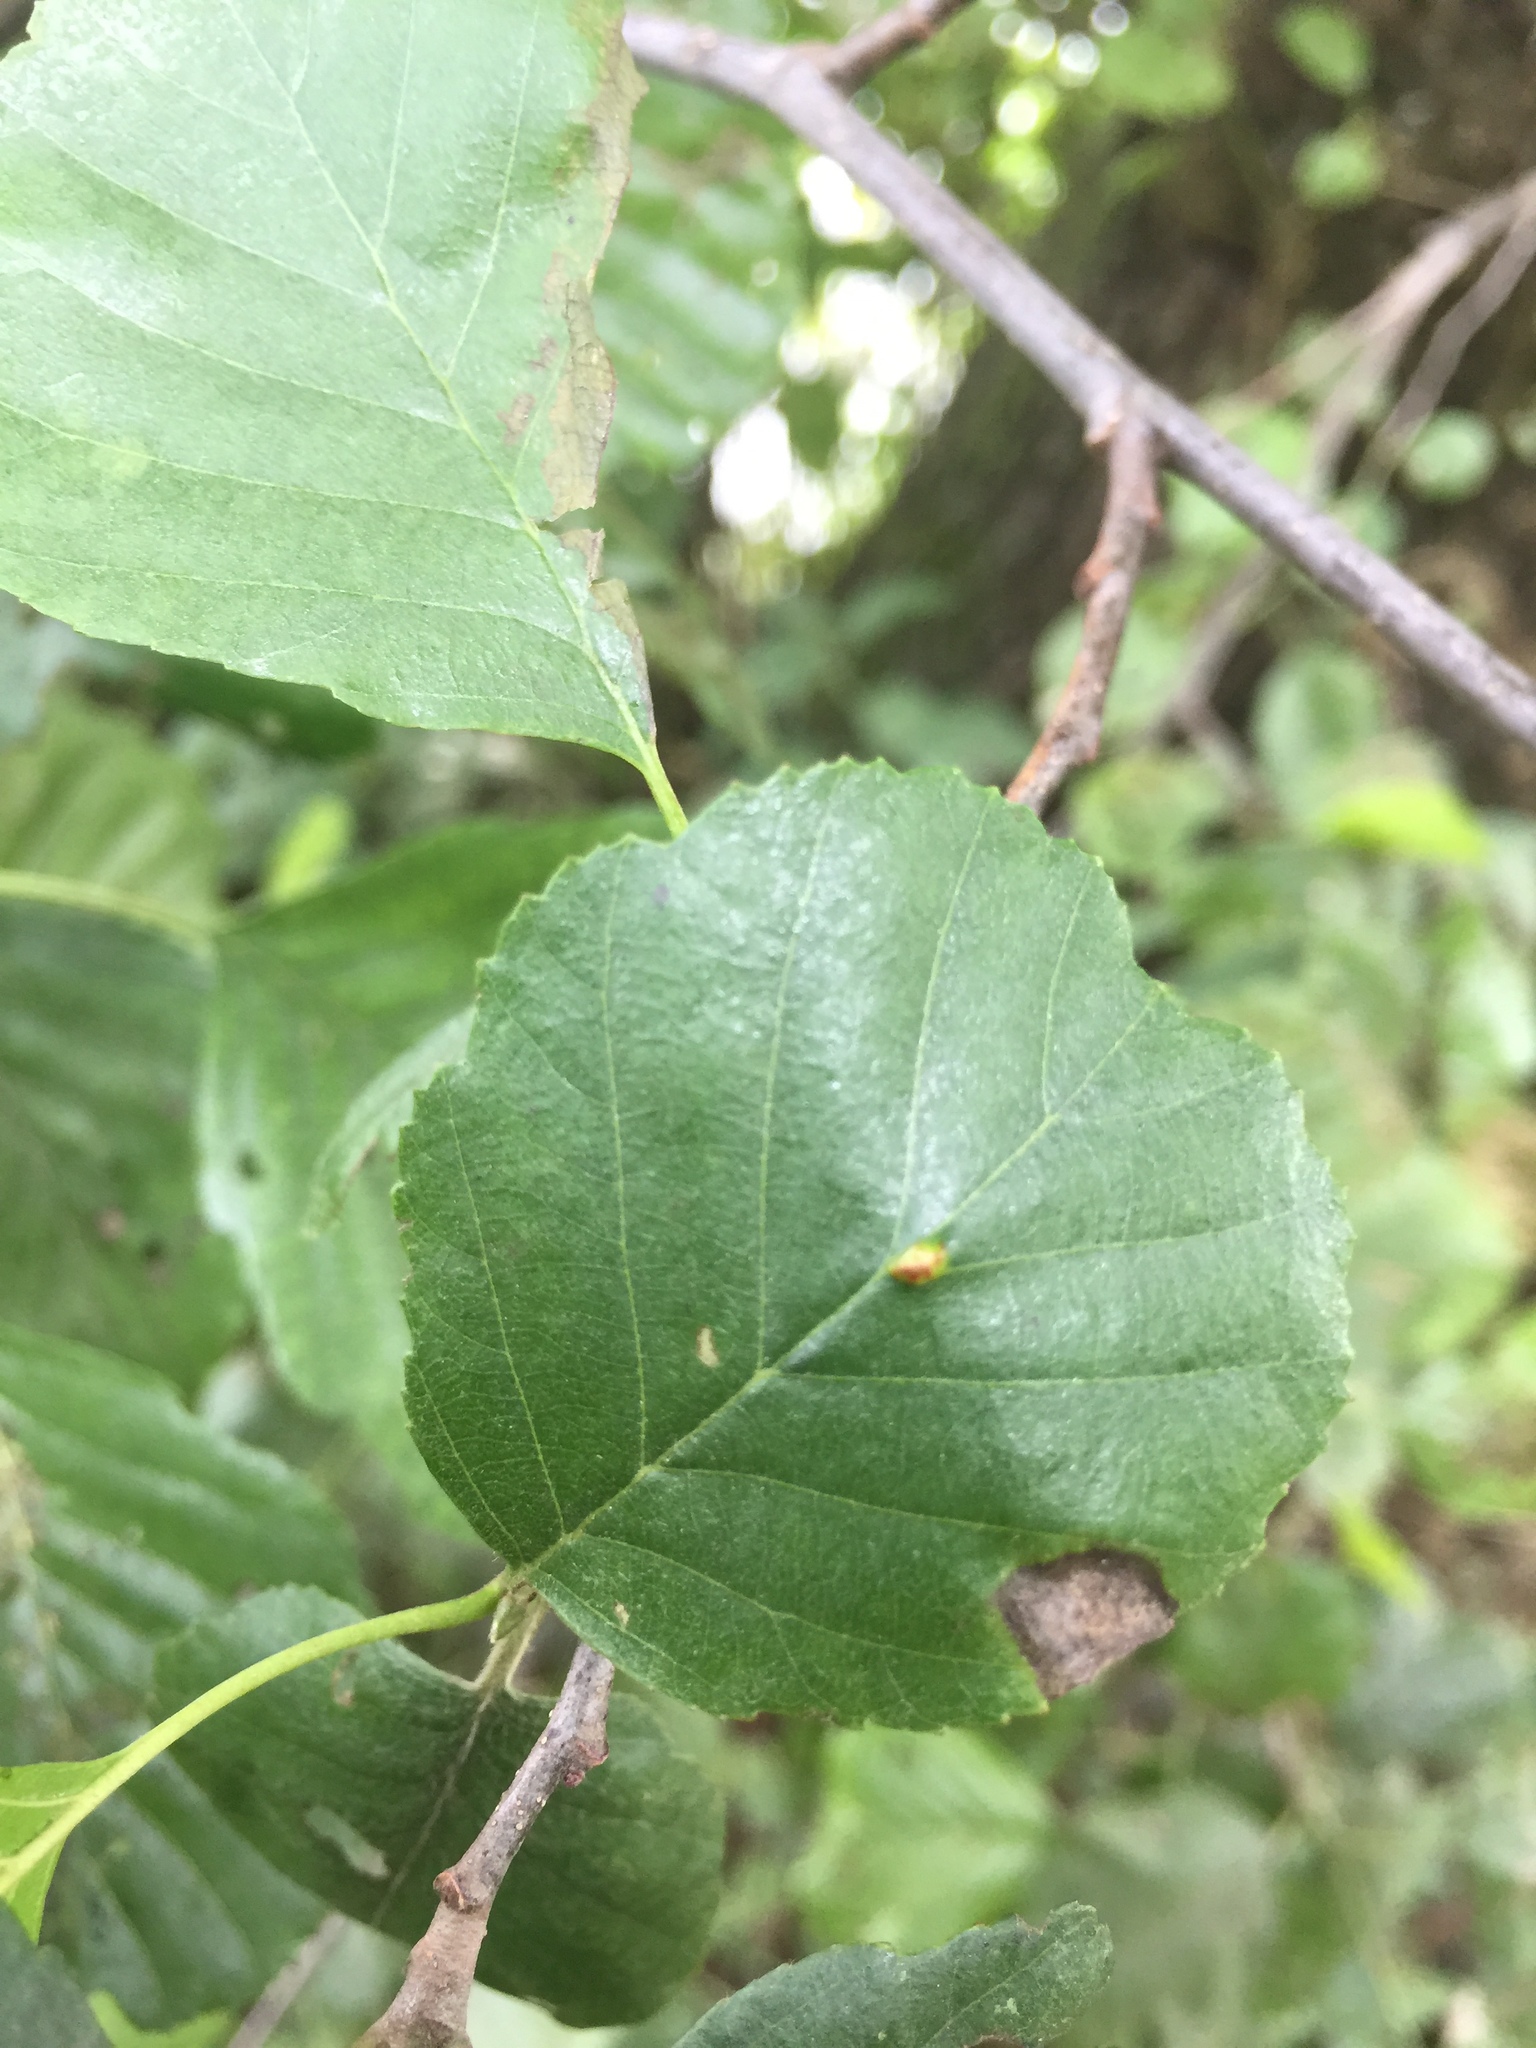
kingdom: Animalia
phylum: Arthropoda
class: Arachnida
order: Trombidiformes
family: Eriophyidae
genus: Eriophyes
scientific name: Eriophyes inangulis
